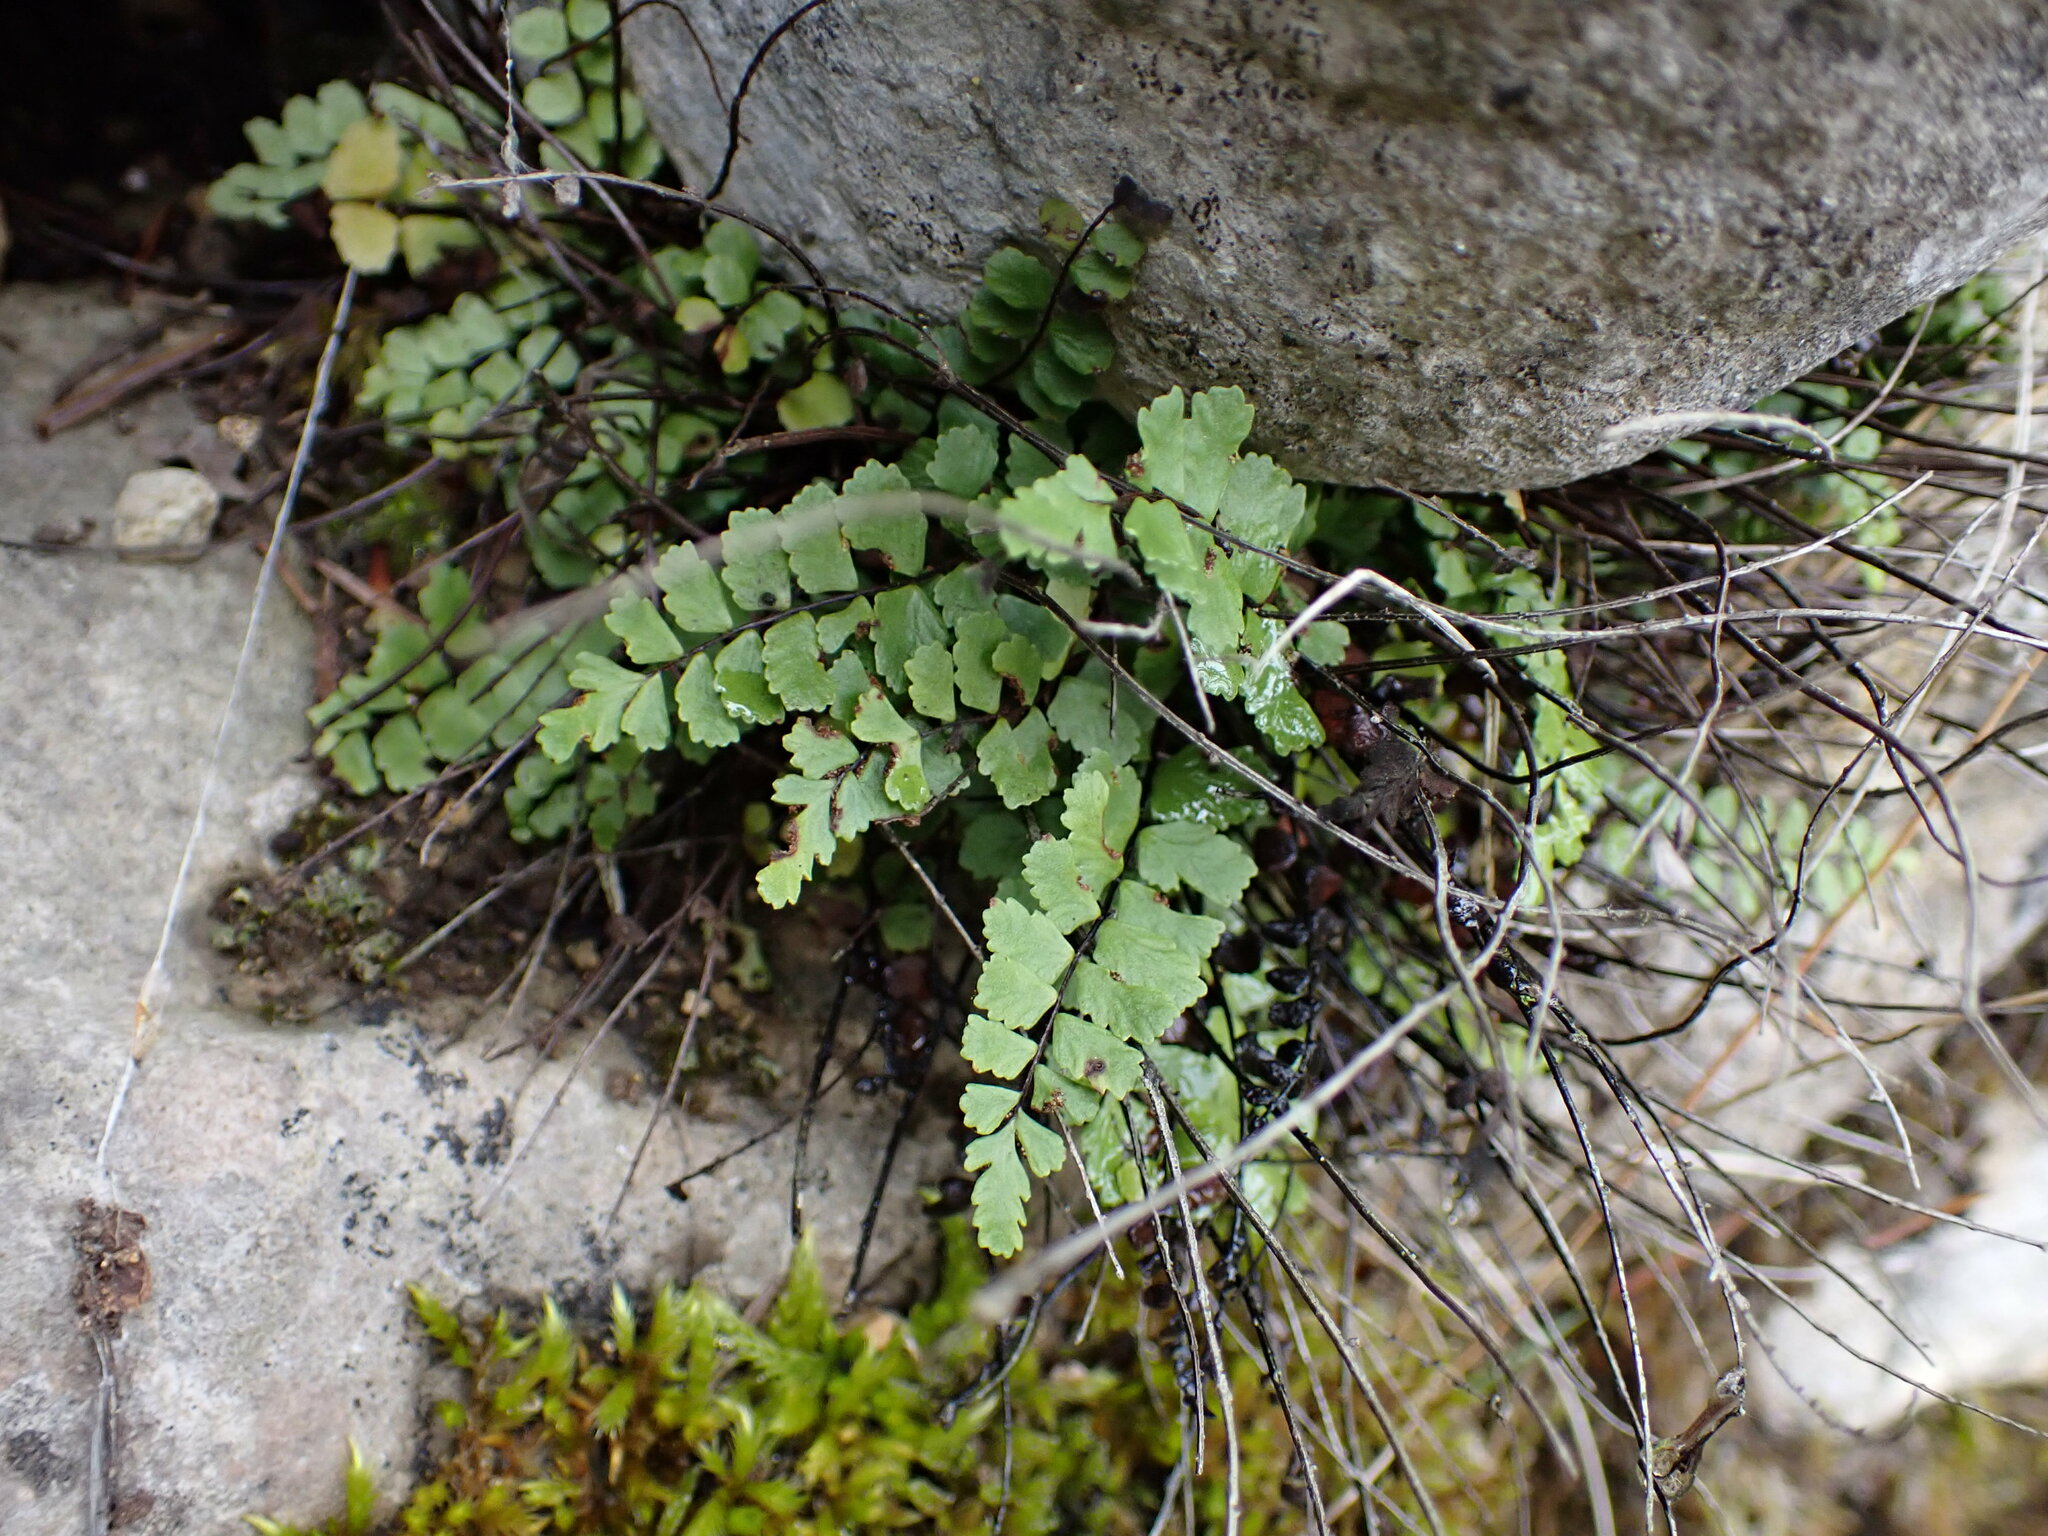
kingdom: Plantae
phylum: Tracheophyta
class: Polypodiopsida
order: Polypodiales
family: Aspleniaceae
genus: Asplenium
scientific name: Asplenium trichomanes
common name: Maidenhair spleenwort
